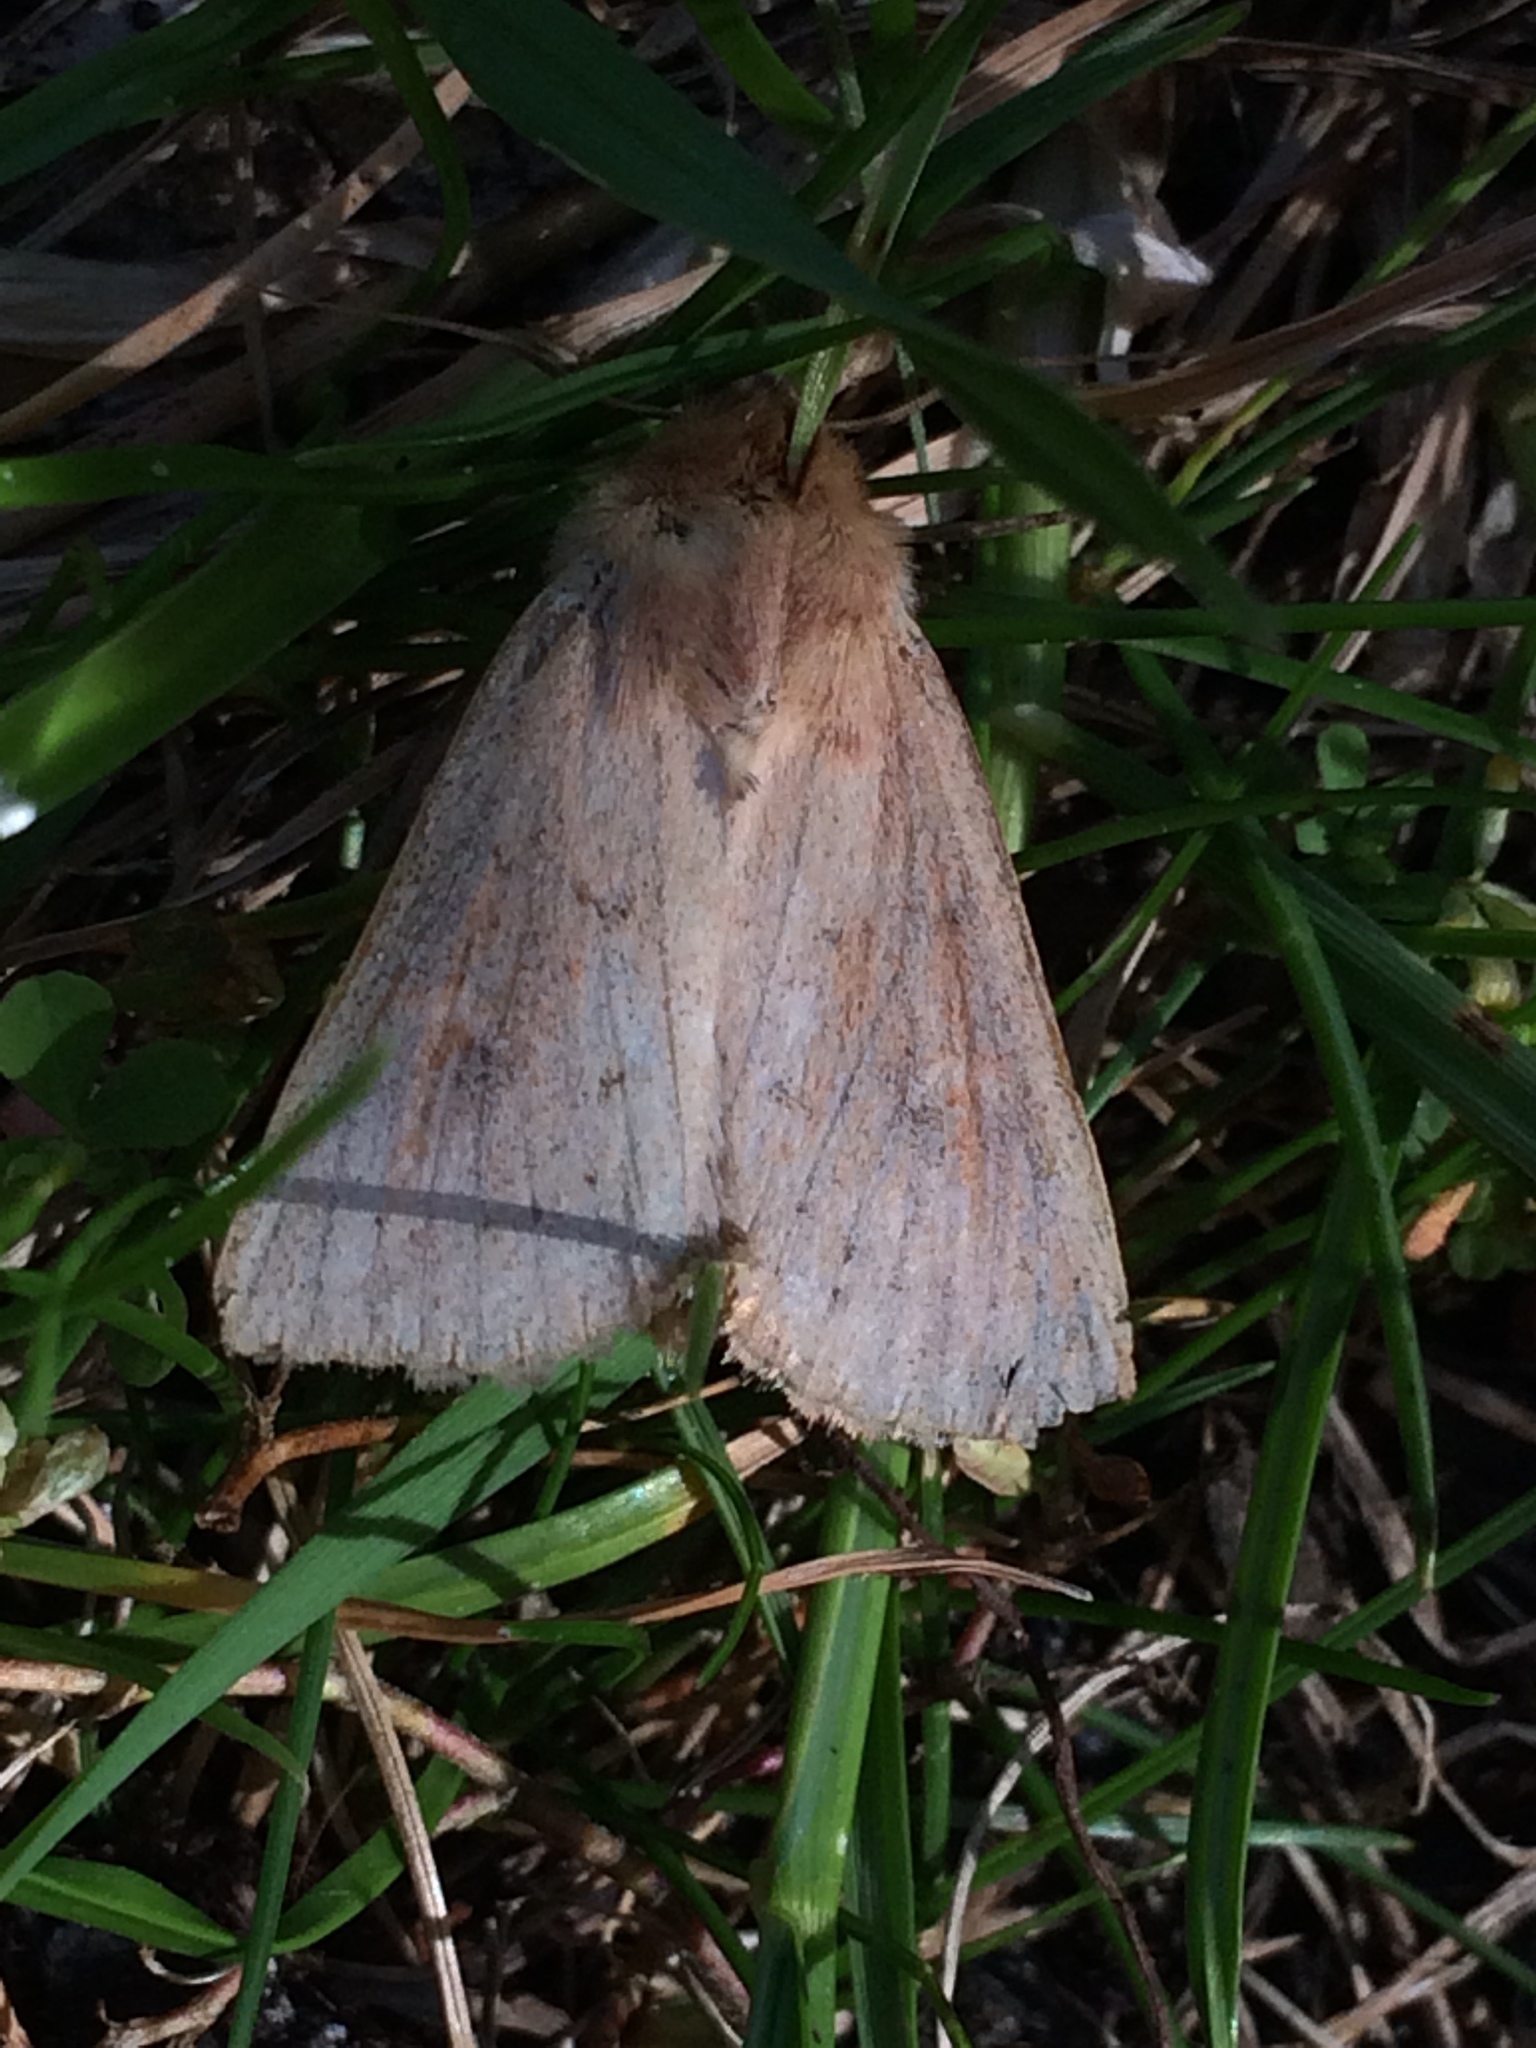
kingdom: Animalia
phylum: Arthropoda
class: Insecta
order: Lepidoptera
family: Noctuidae
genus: Mythimna
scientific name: Mythimna ferrago
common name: Clay
